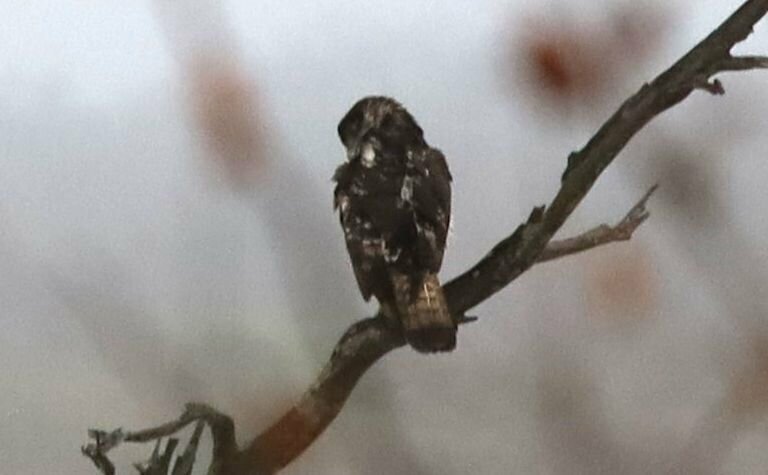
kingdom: Animalia
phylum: Chordata
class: Aves
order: Accipitriformes
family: Accipitridae
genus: Aquila
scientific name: Aquila spilogaster
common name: African hawk-eagle
